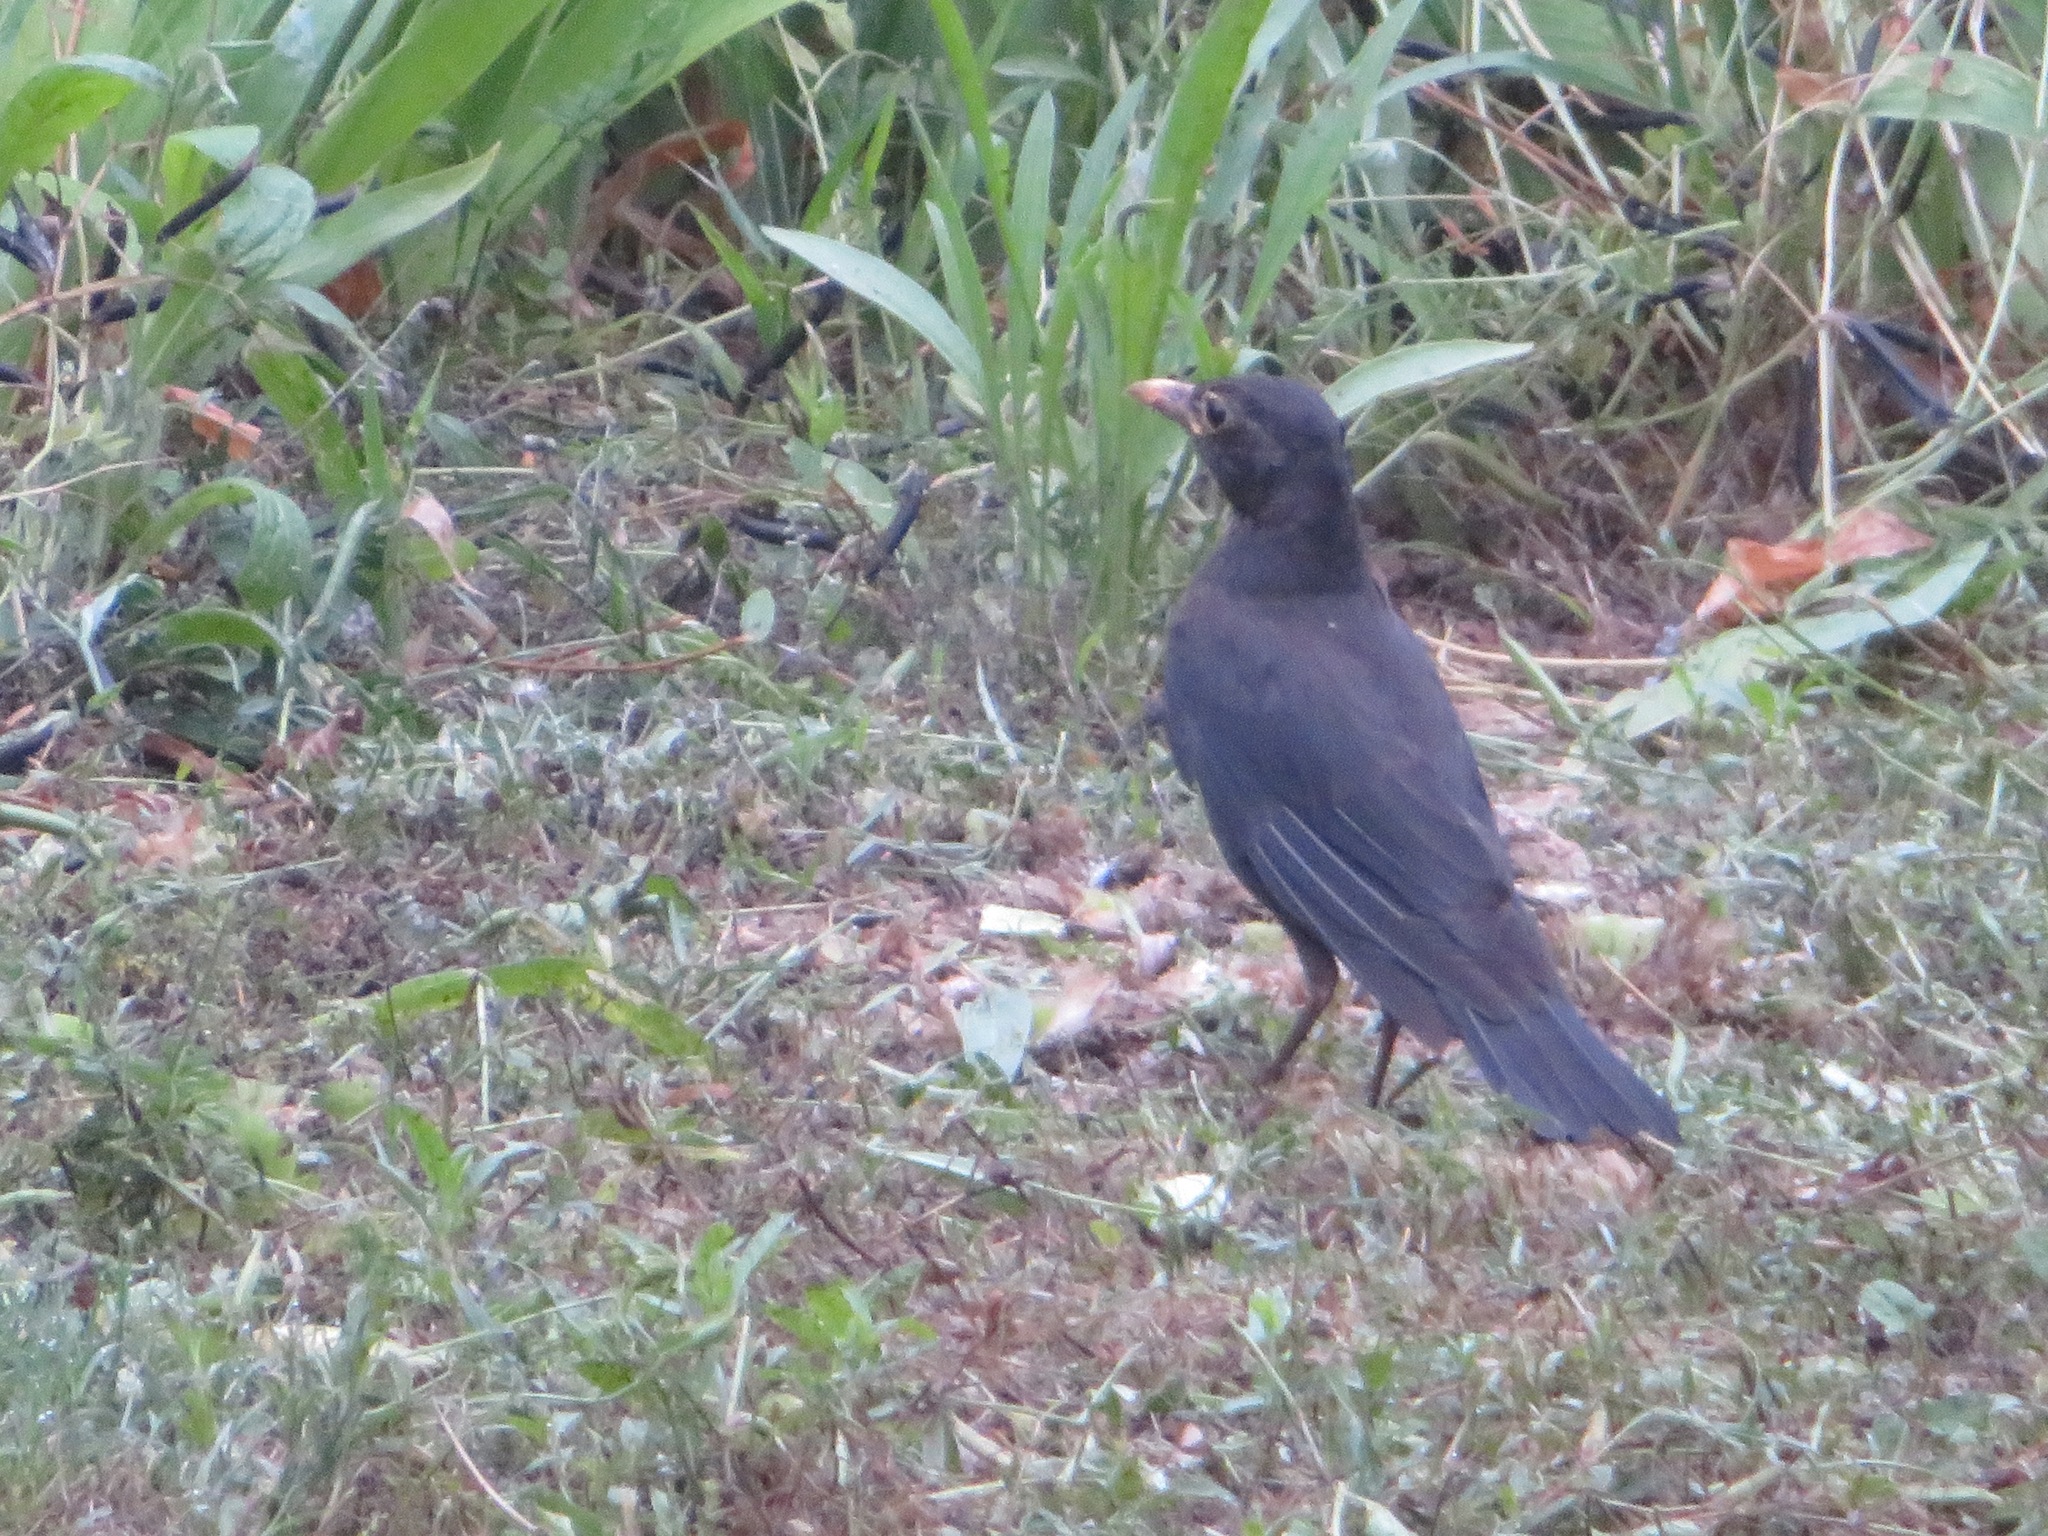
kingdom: Animalia
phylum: Chordata
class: Aves
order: Passeriformes
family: Turdidae
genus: Turdus
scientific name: Turdus mandarinus
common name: Chinese blackbird
